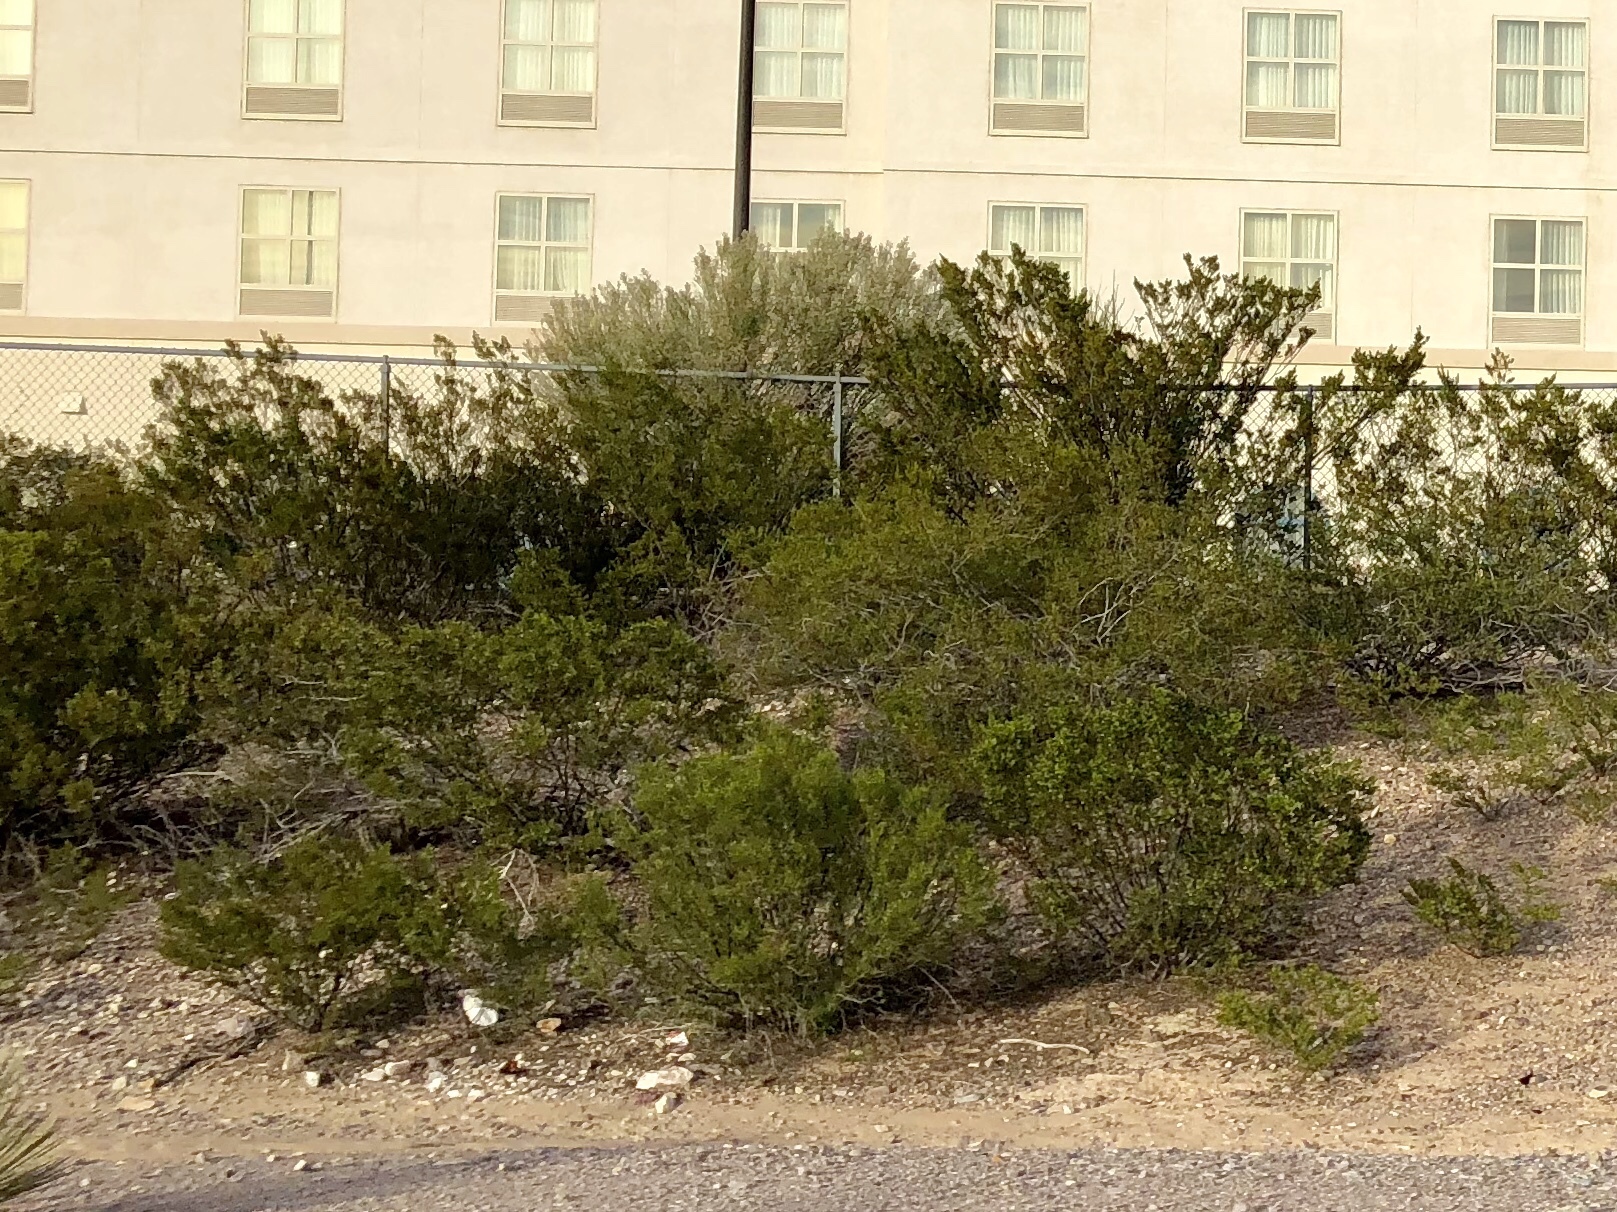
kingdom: Plantae
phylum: Tracheophyta
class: Magnoliopsida
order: Zygophyllales
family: Zygophyllaceae
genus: Larrea
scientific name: Larrea tridentata
